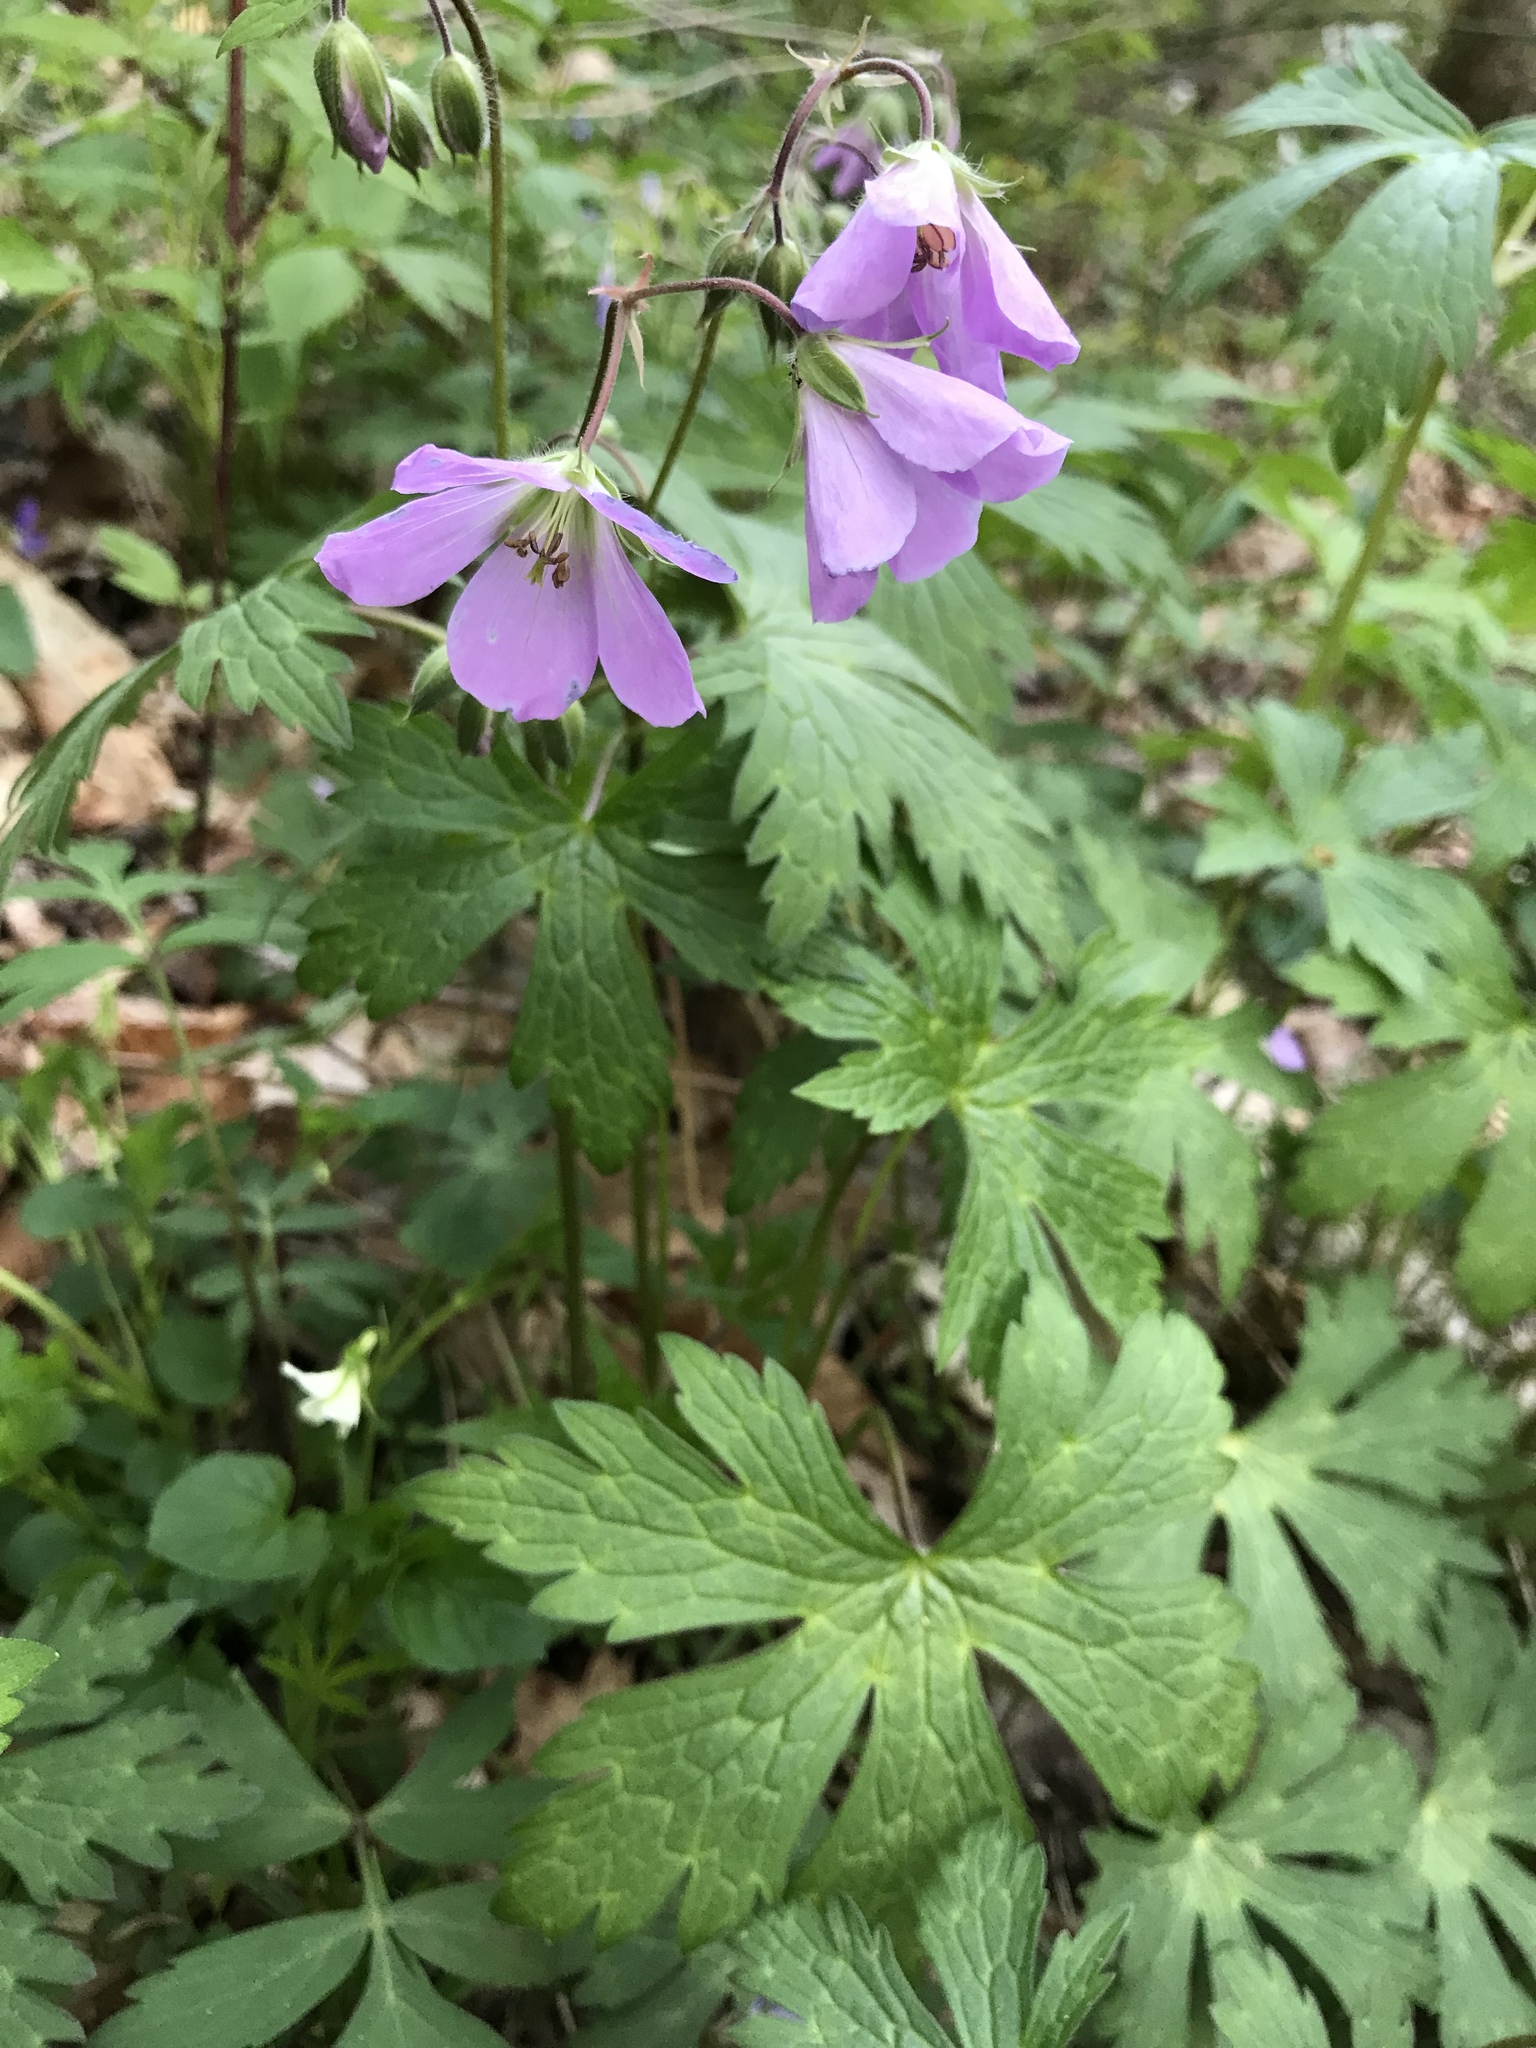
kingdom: Plantae
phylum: Tracheophyta
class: Magnoliopsida
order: Geraniales
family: Geraniaceae
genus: Geranium
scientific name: Geranium maculatum
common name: Spotted geranium
